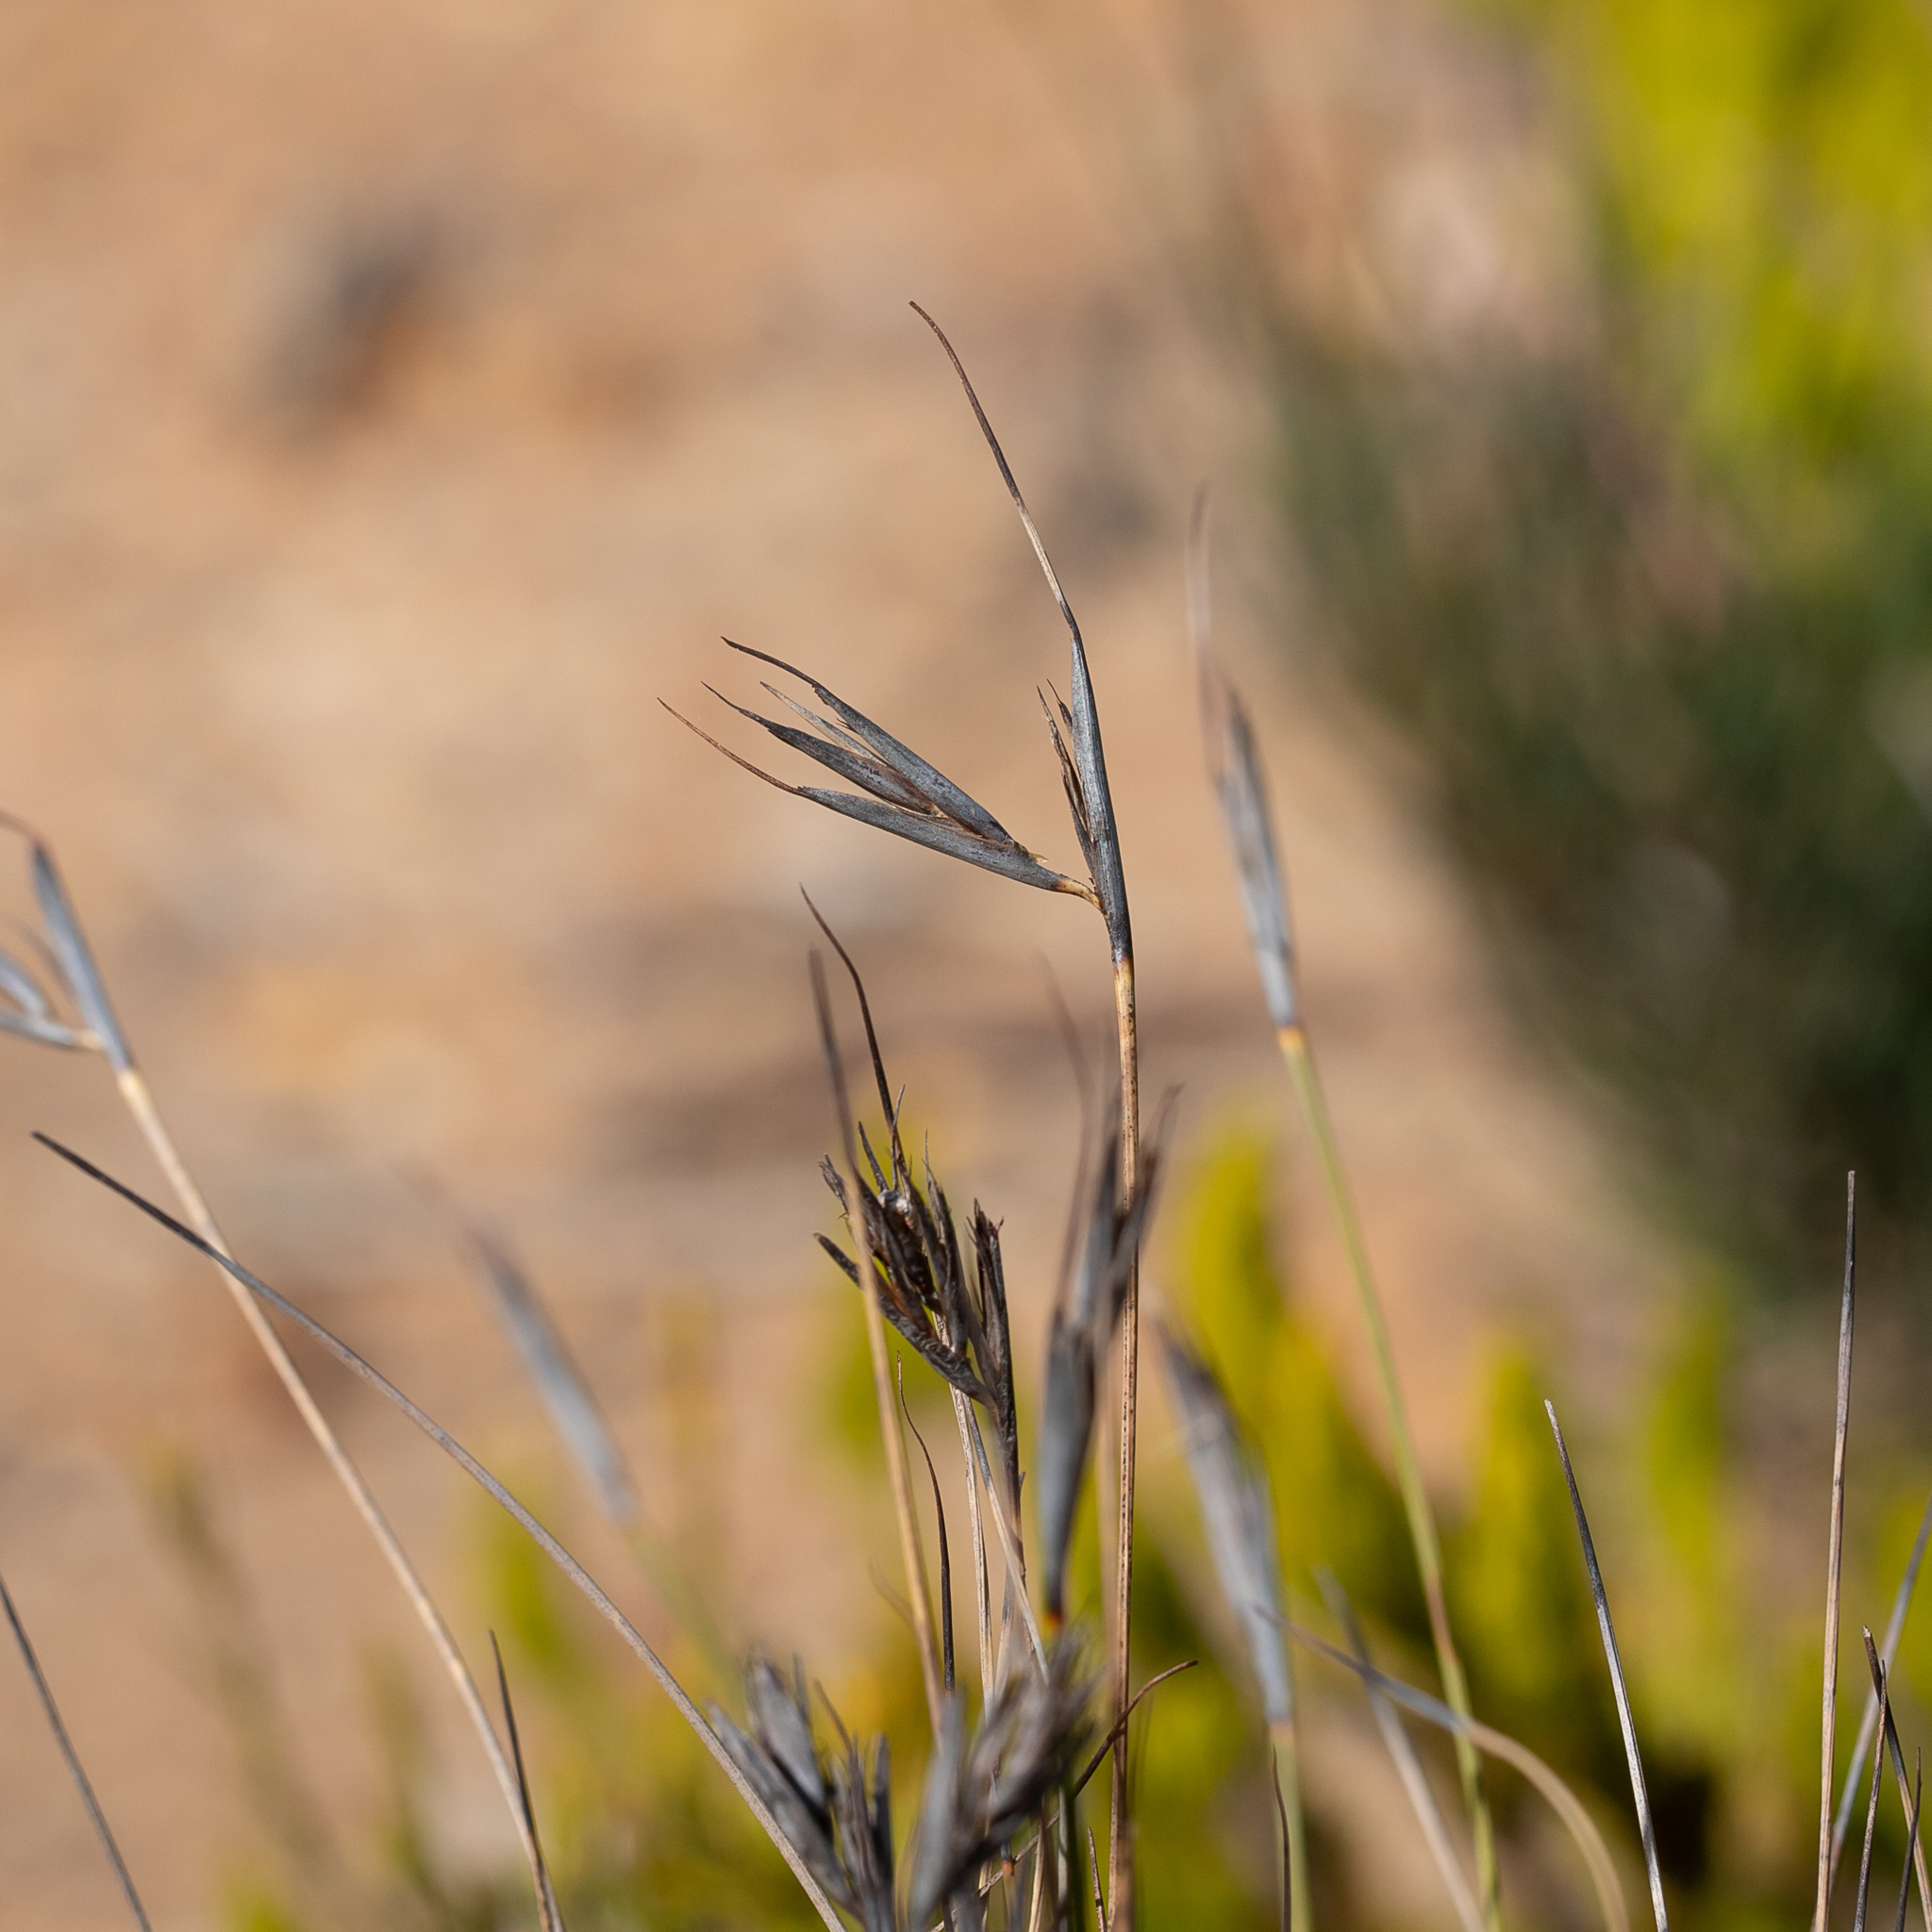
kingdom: Plantae
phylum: Tracheophyta
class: Liliopsida
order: Poales
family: Cyperaceae
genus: Lepidosperma
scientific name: Lepidosperma carphoides
